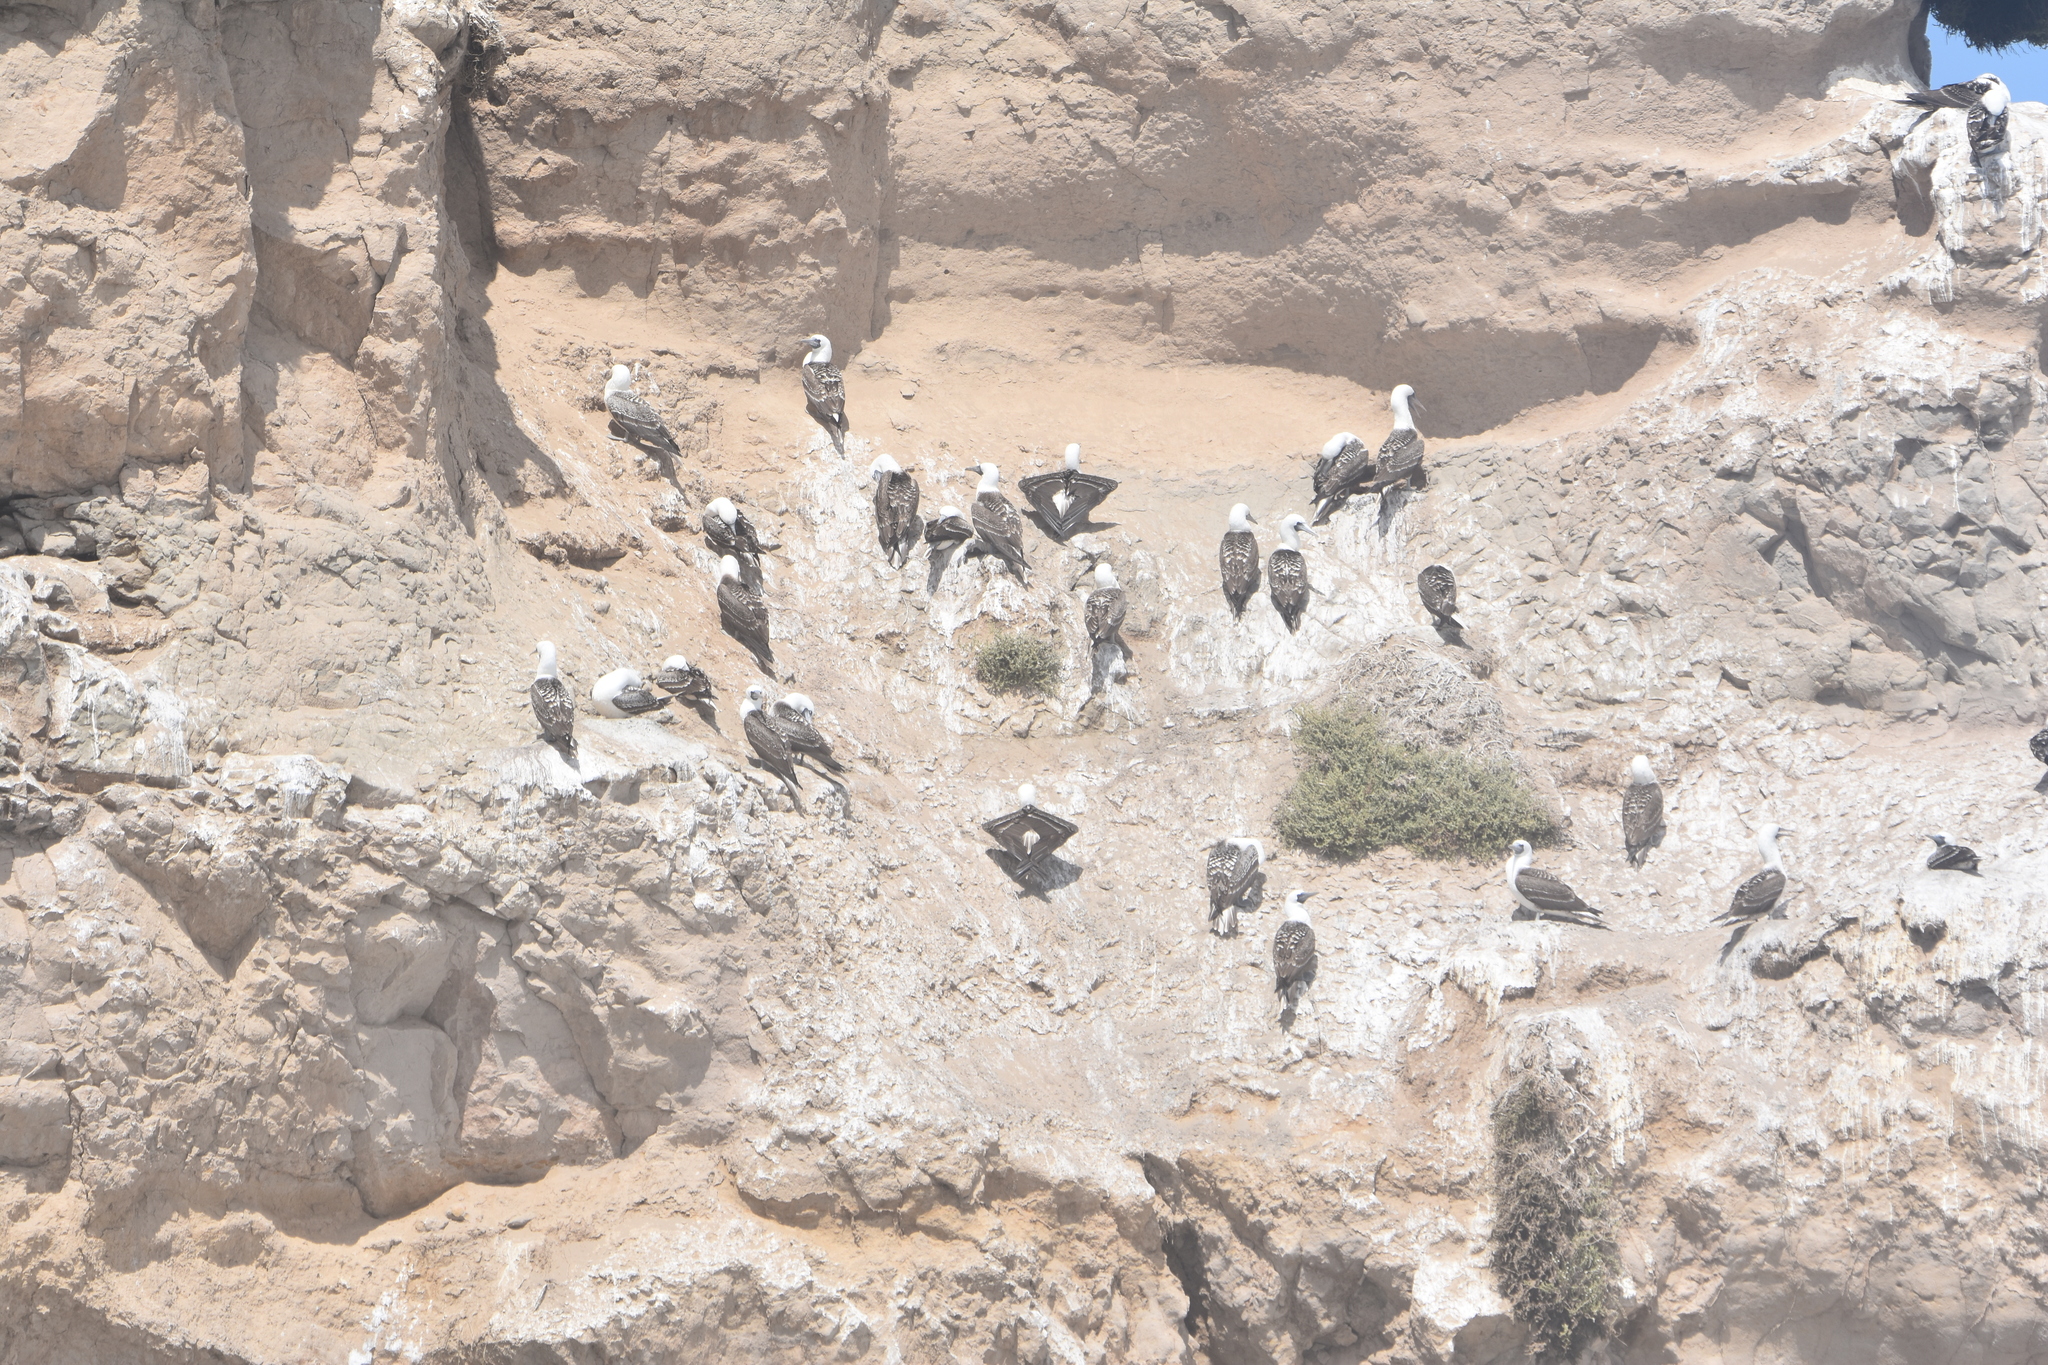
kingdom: Animalia
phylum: Chordata
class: Aves
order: Suliformes
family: Sulidae
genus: Sula
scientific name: Sula variegata
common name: Peruvian booby
